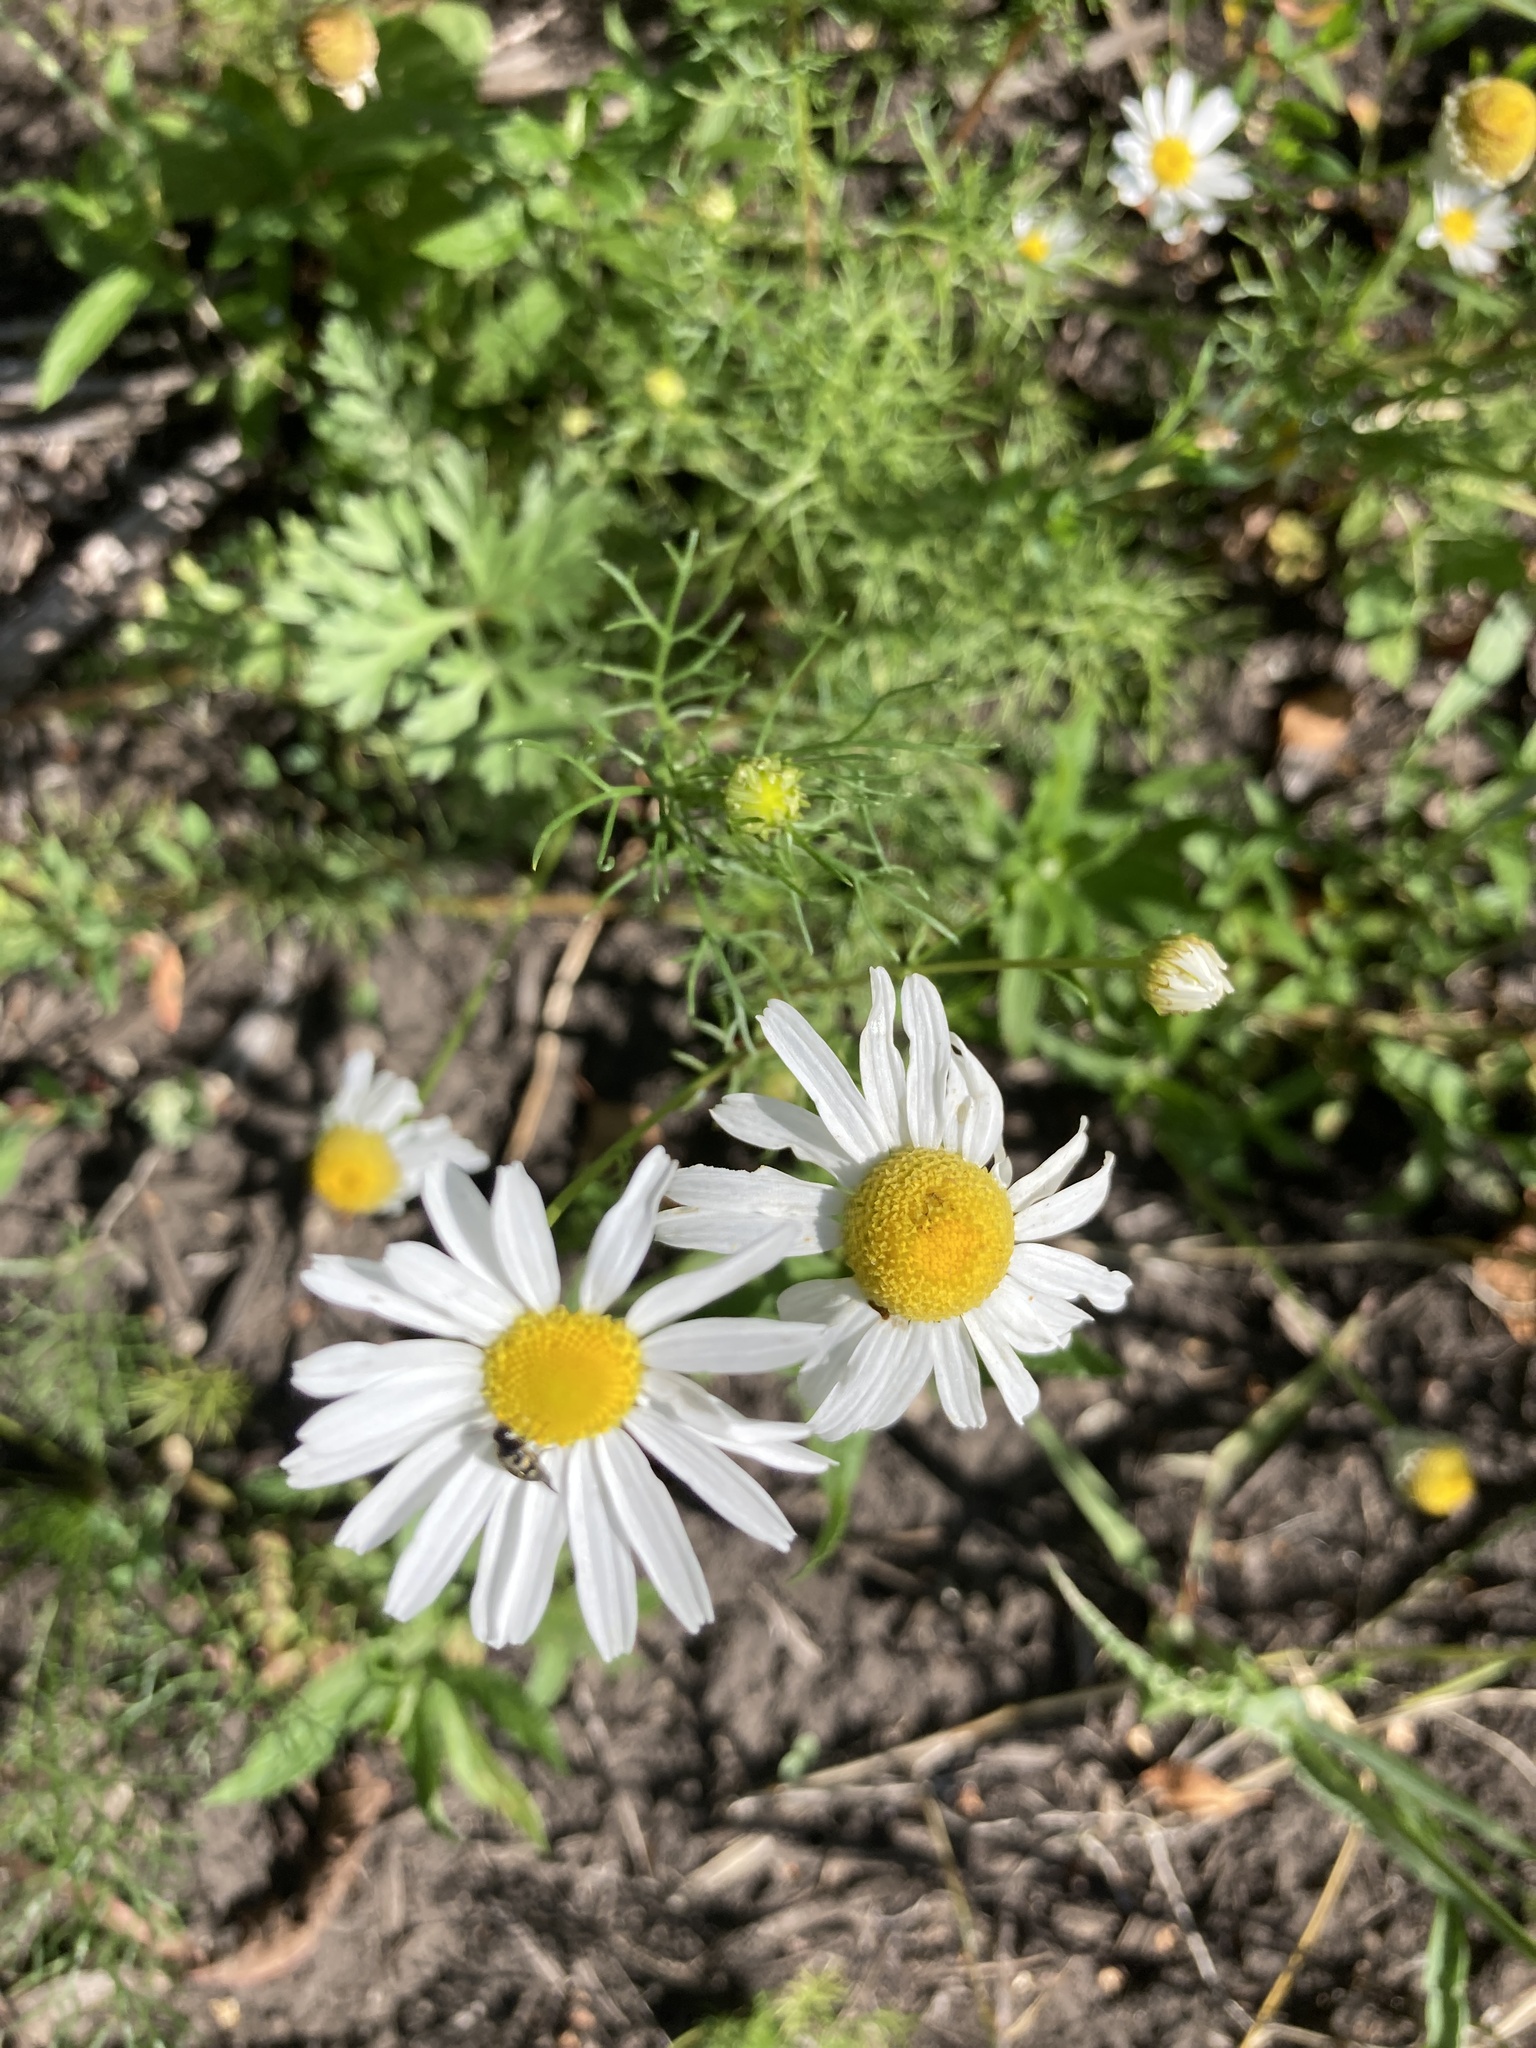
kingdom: Plantae
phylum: Tracheophyta
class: Magnoliopsida
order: Asterales
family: Asteraceae
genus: Tripleurospermum
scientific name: Tripleurospermum inodorum
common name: Scentless mayweed
